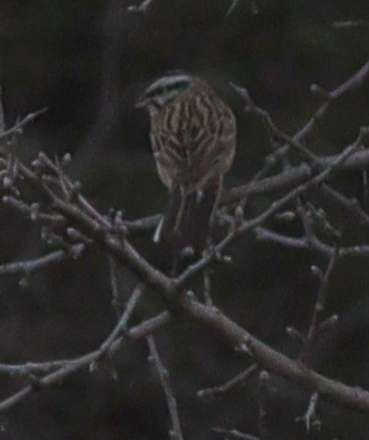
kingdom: Animalia
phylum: Chordata
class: Aves
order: Passeriformes
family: Emberizidae
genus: Emberiza
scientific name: Emberiza cia
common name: Rock bunting
